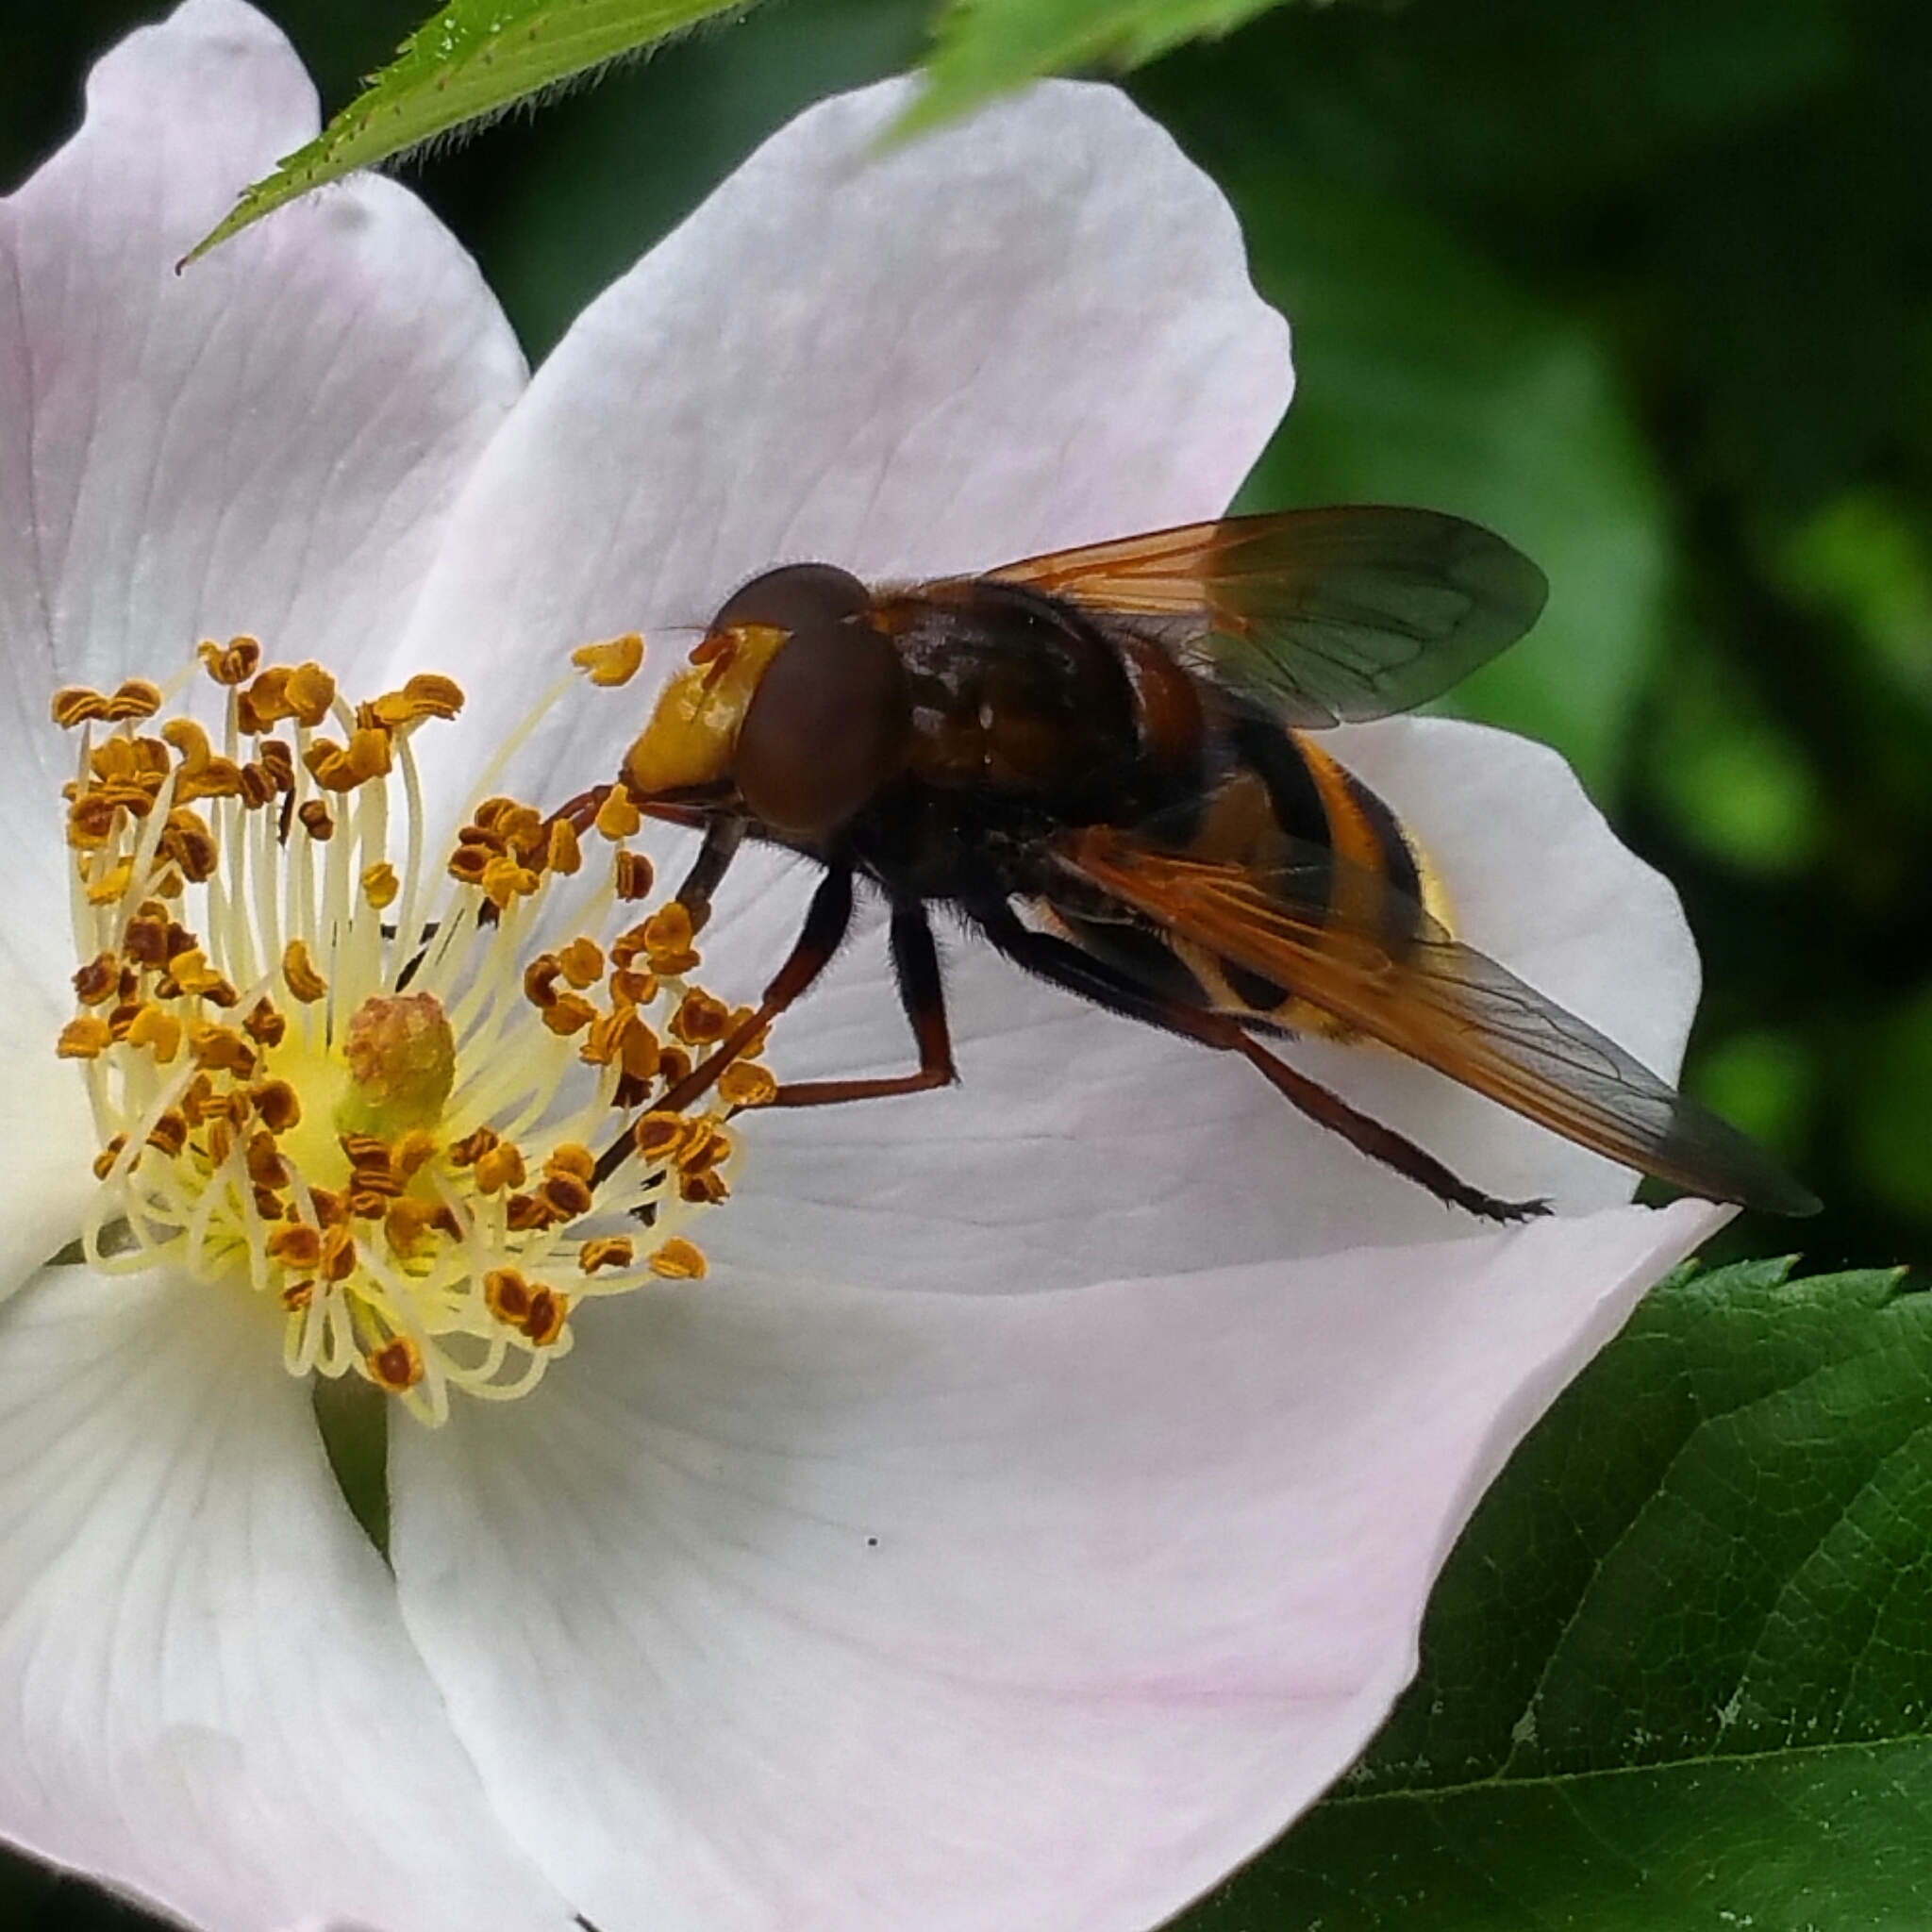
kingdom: Animalia
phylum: Arthropoda
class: Insecta
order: Diptera
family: Syrphidae
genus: Volucella
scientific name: Volucella zonaria
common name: Hornet hoverfly
